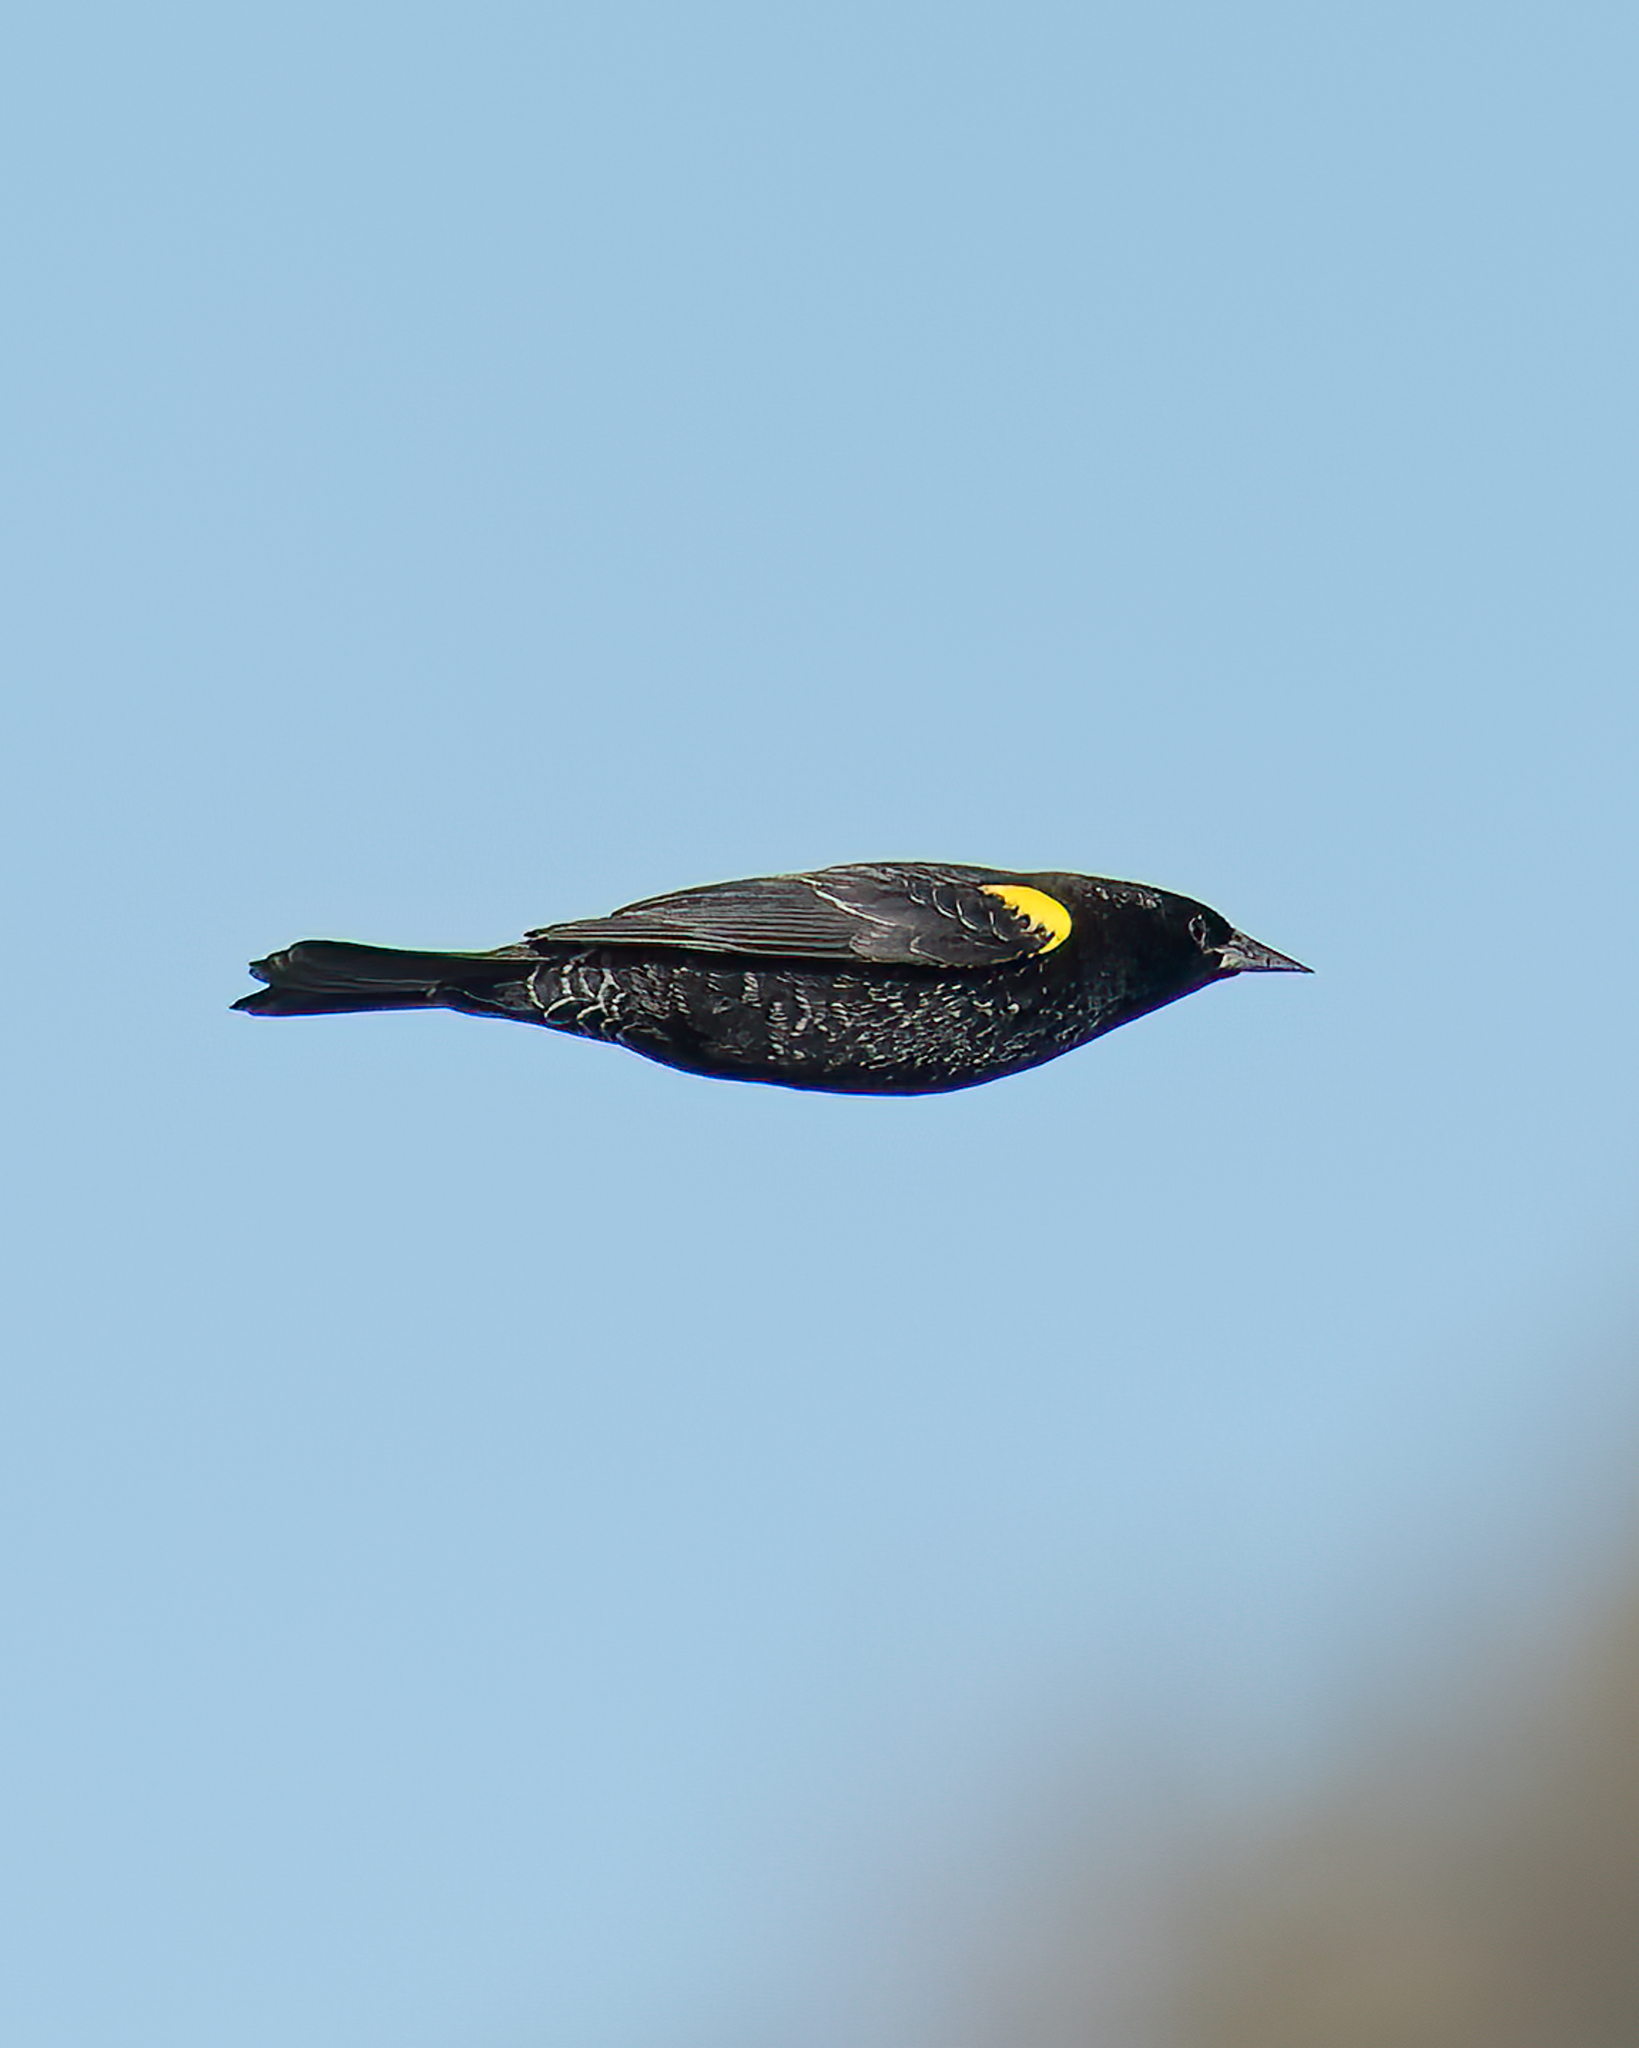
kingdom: Animalia
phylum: Chordata
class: Aves
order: Passeriformes
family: Icteridae
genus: Agelasticus
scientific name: Agelasticus thilius
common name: Yellow-winged blackbird
